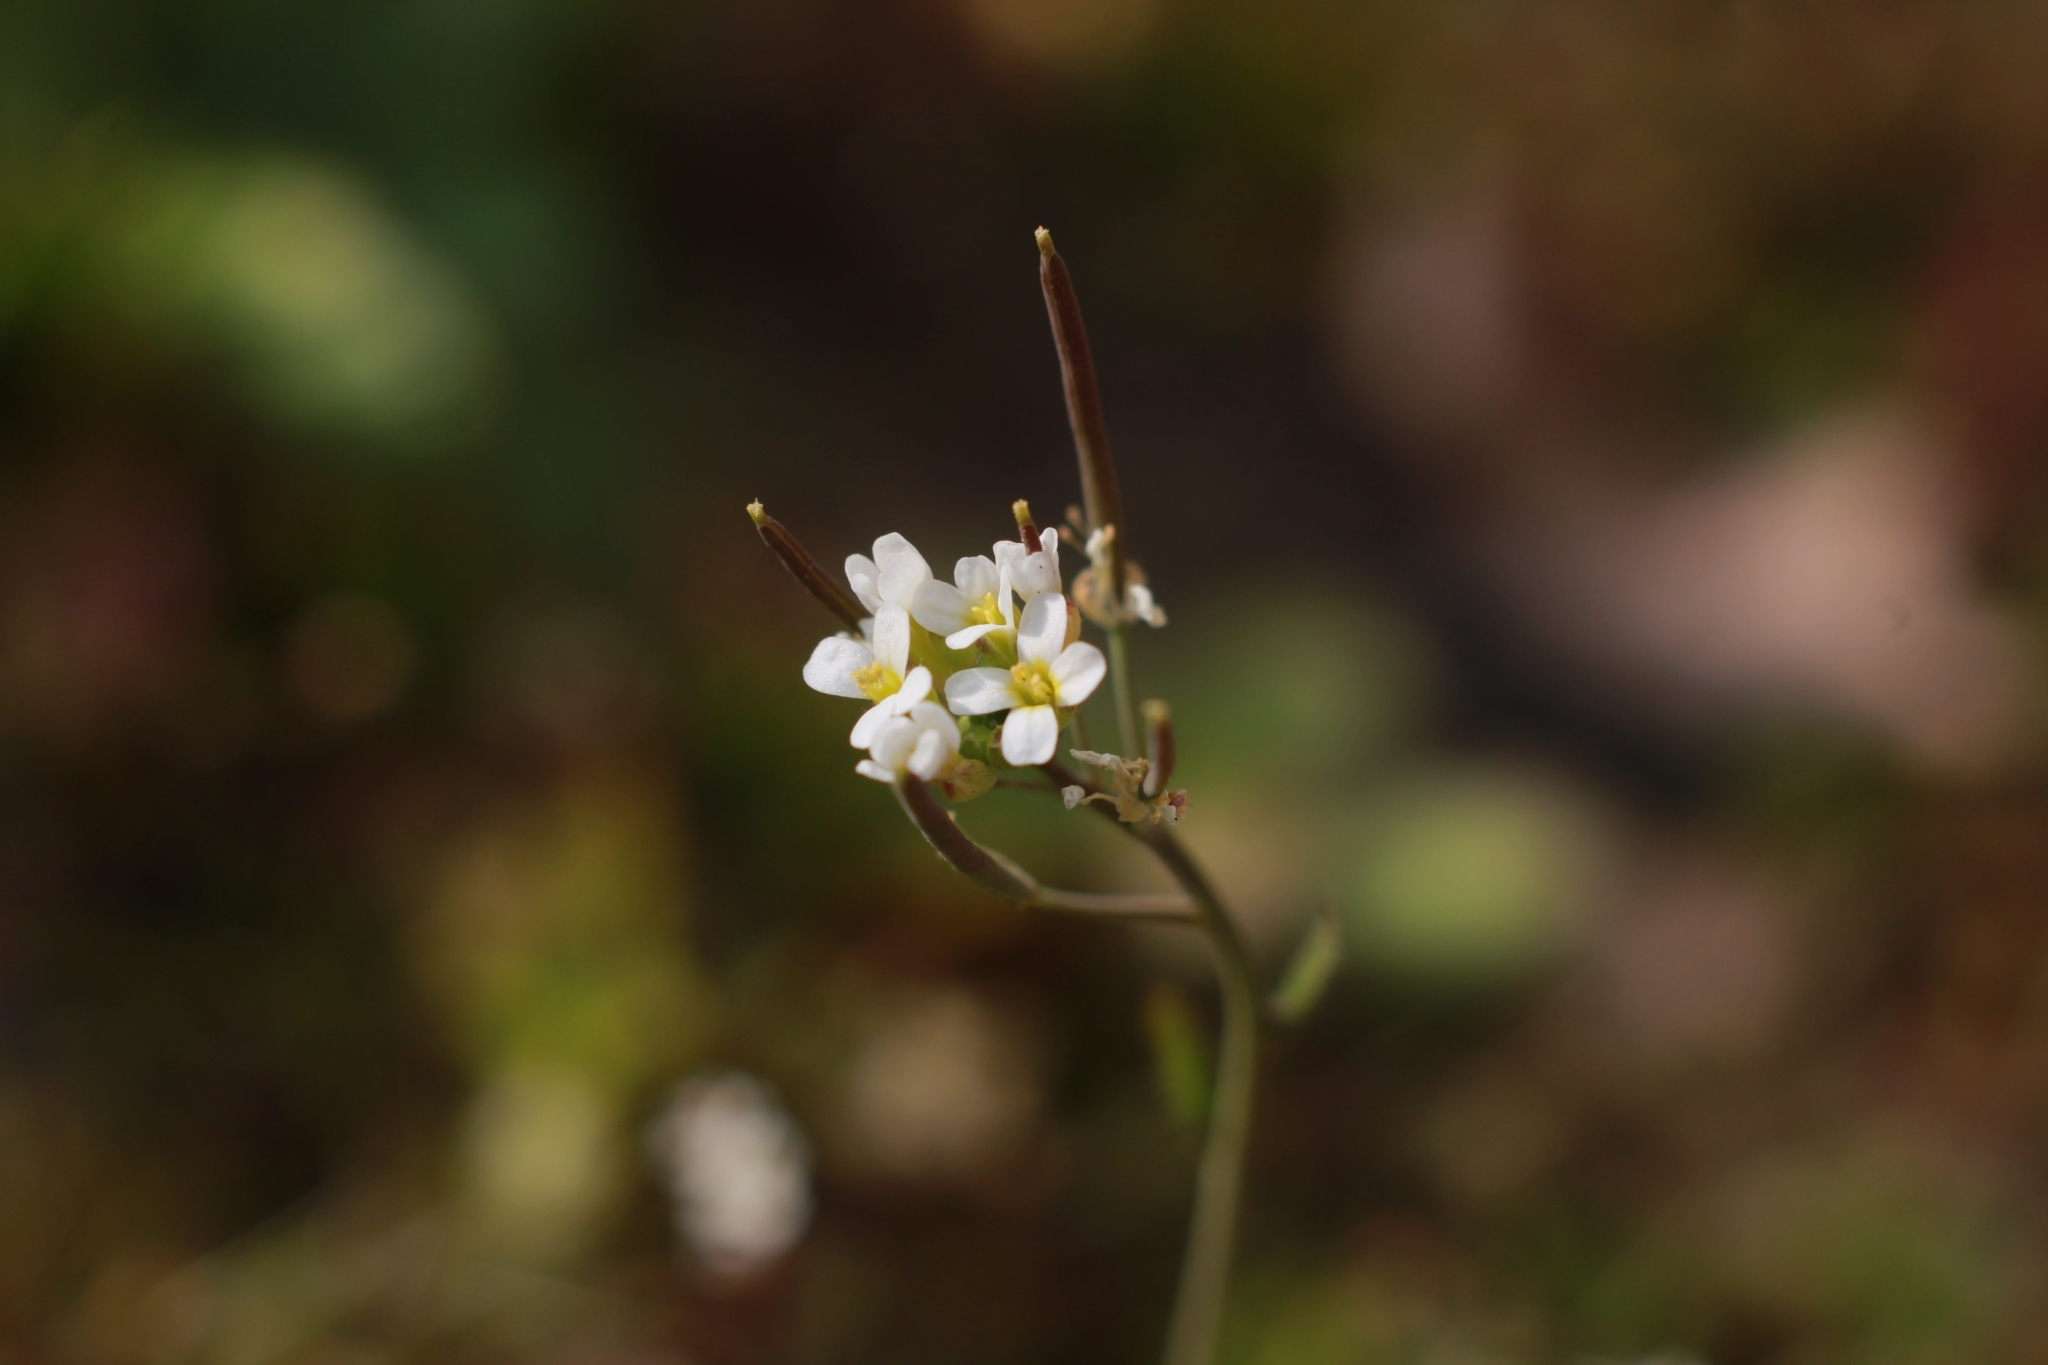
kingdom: Plantae
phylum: Tracheophyta
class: Magnoliopsida
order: Brassicales
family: Brassicaceae
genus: Arabidopsis
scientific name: Arabidopsis thaliana
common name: Thale cress
